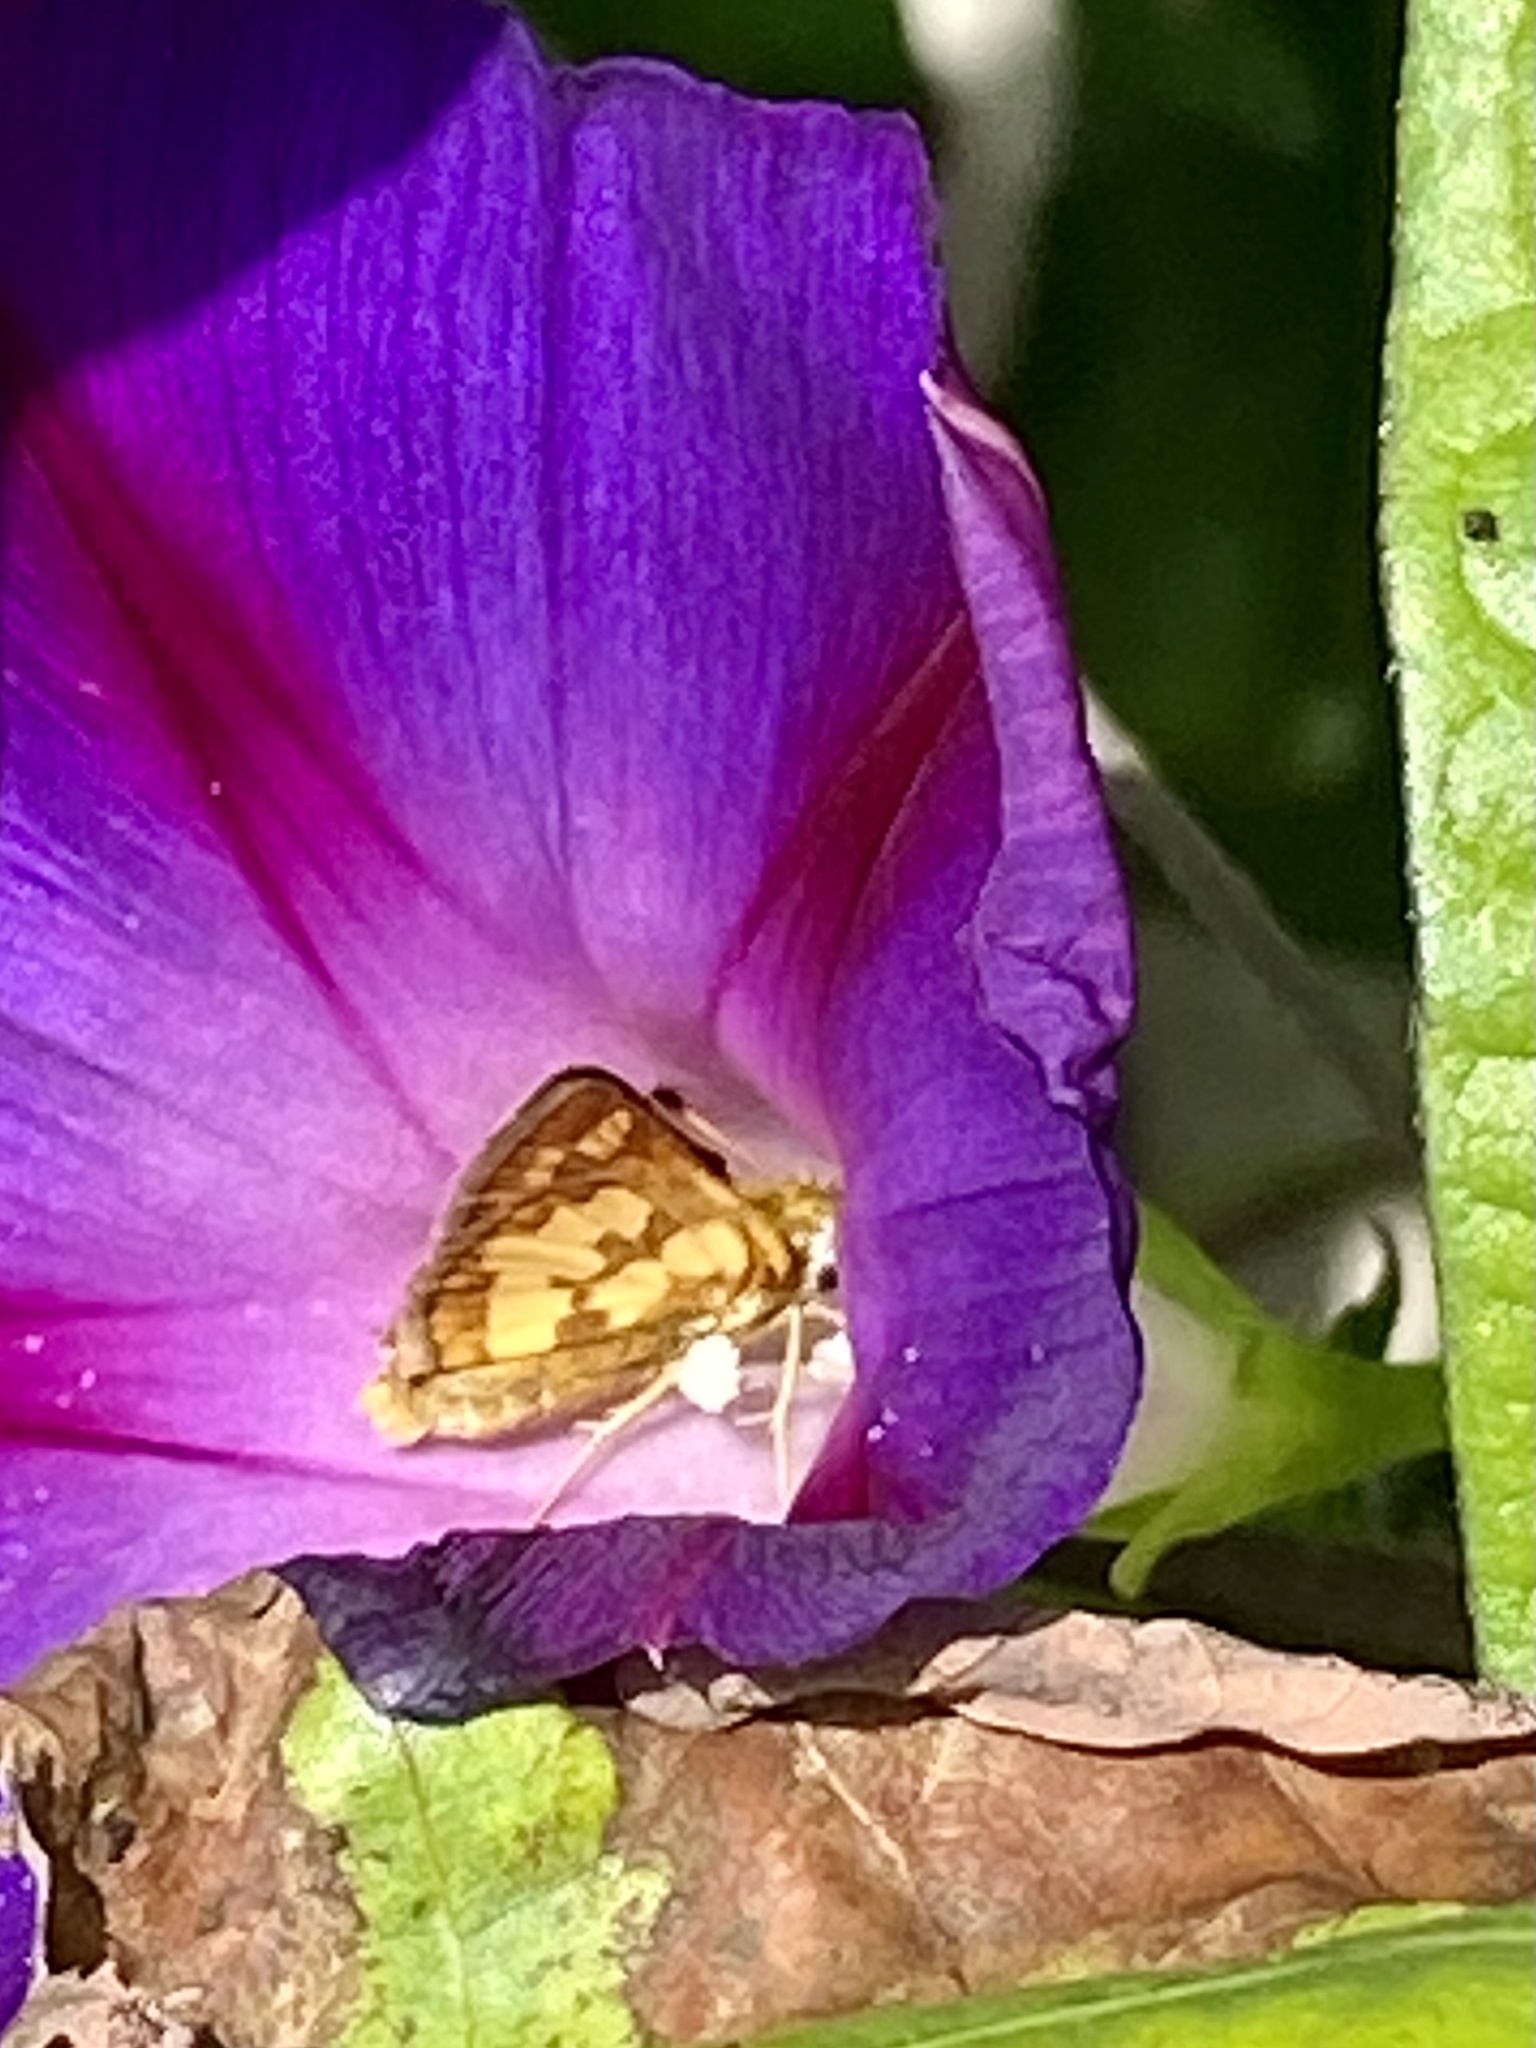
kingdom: Animalia
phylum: Arthropoda
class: Insecta
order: Lepidoptera
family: Hesperiidae
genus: Polites
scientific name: Polites coras
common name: Peck's skipper
